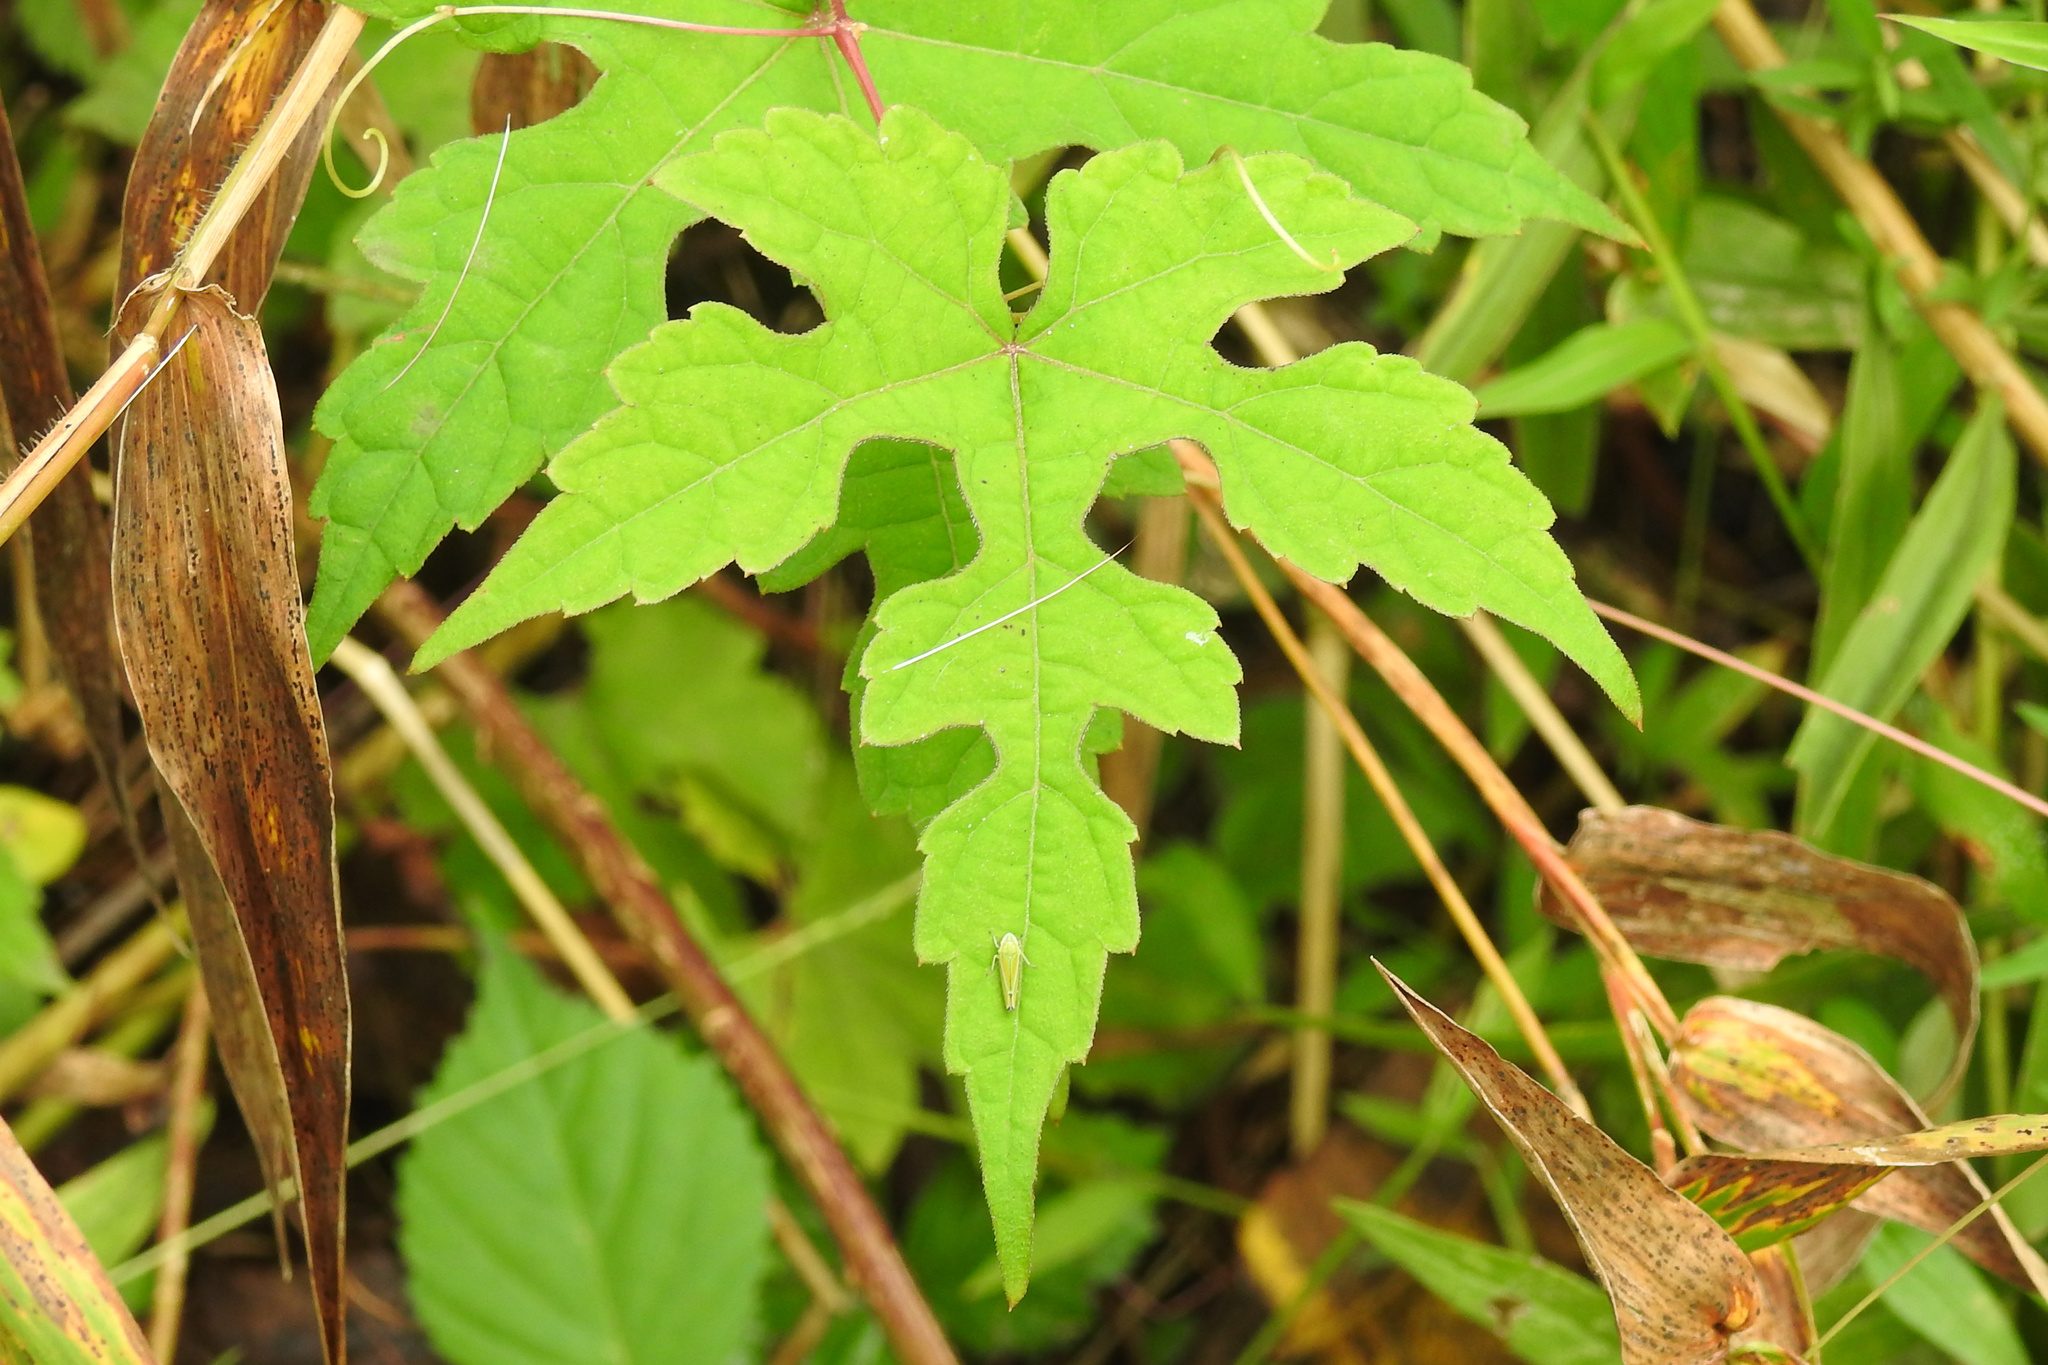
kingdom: Plantae
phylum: Tracheophyta
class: Magnoliopsida
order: Vitales
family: Vitaceae
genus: Ampelopsis
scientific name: Ampelopsis glandulosa
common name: Amur peppervine
